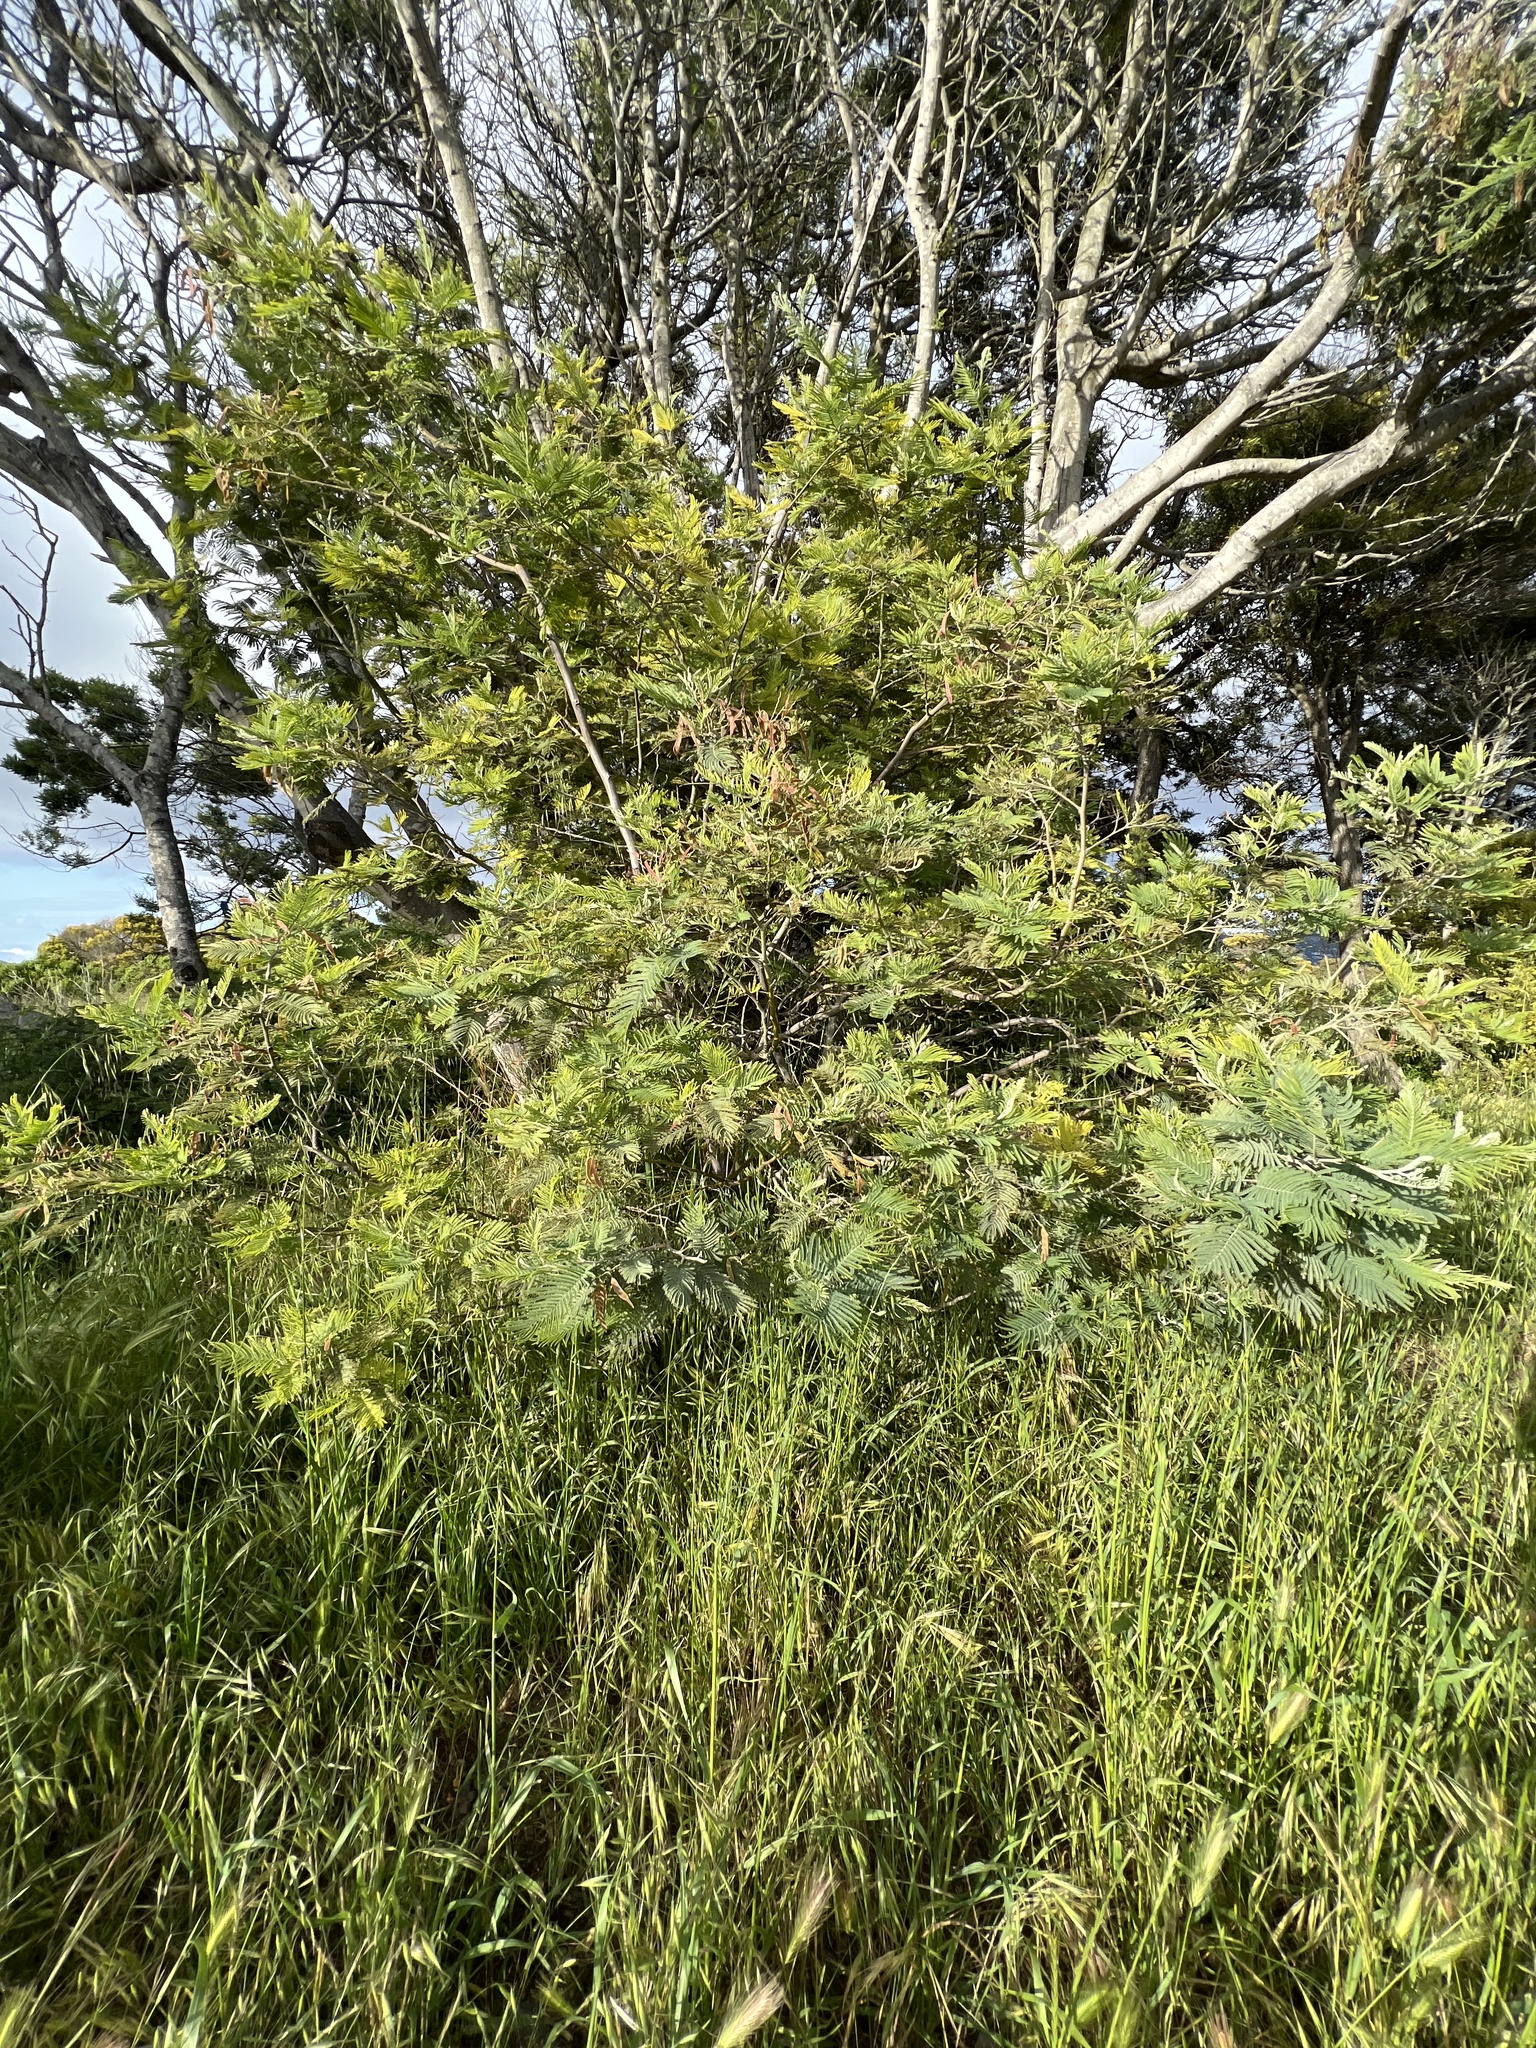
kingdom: Plantae
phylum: Tracheophyta
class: Magnoliopsida
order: Fabales
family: Fabaceae
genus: Acacia
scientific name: Acacia dealbata
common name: Silver wattle
